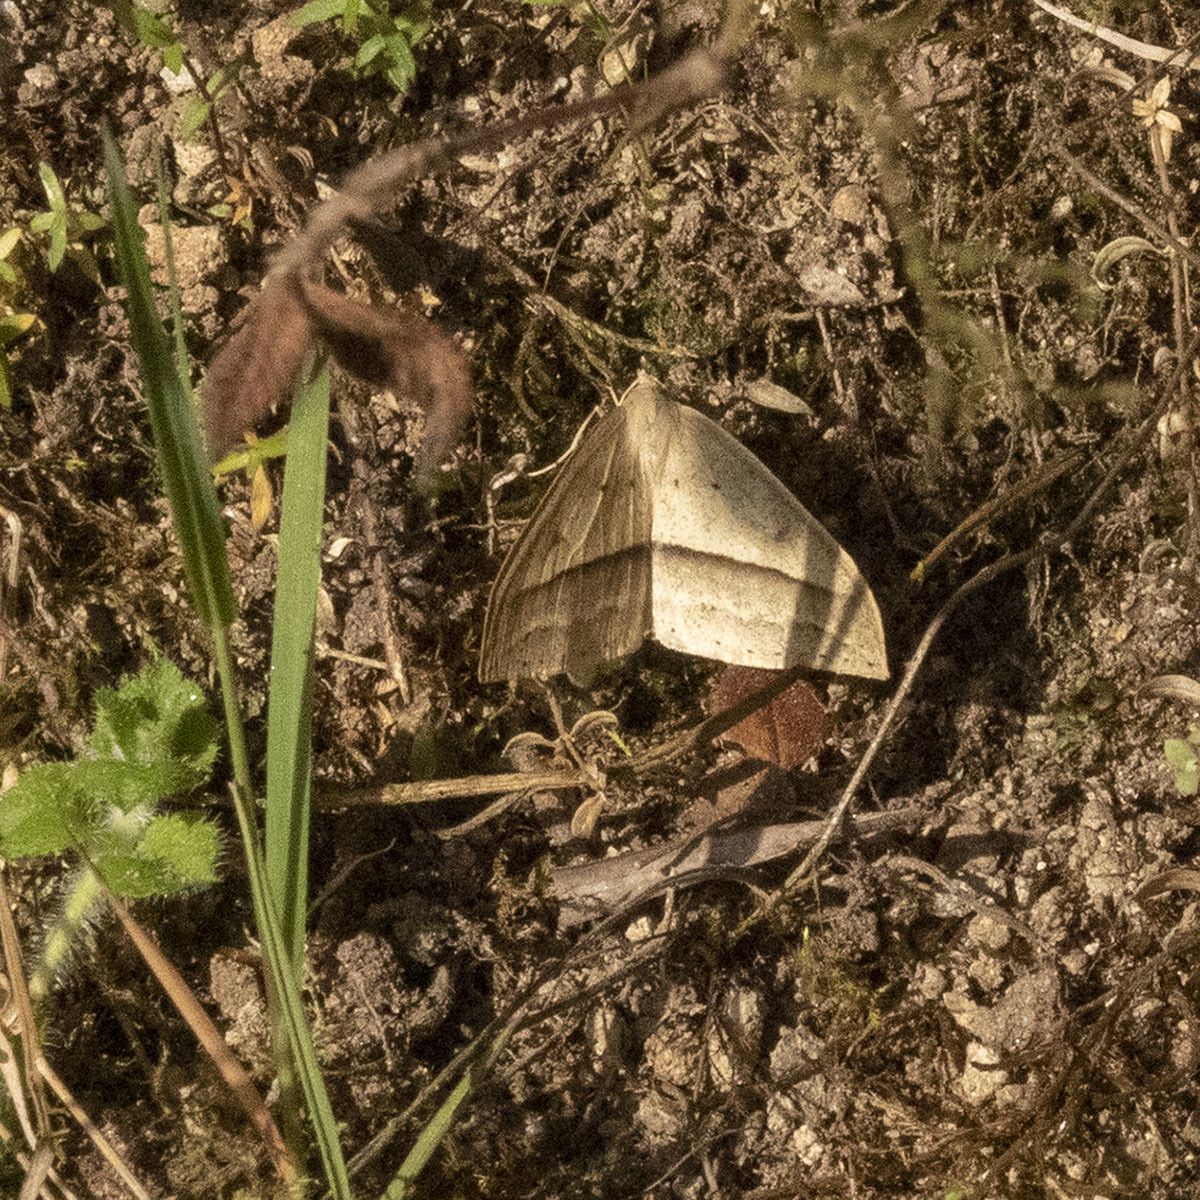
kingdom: Animalia
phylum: Arthropoda
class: Insecta
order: Lepidoptera
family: Geometridae
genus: Loxaspilates
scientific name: Loxaspilates obliquaria
